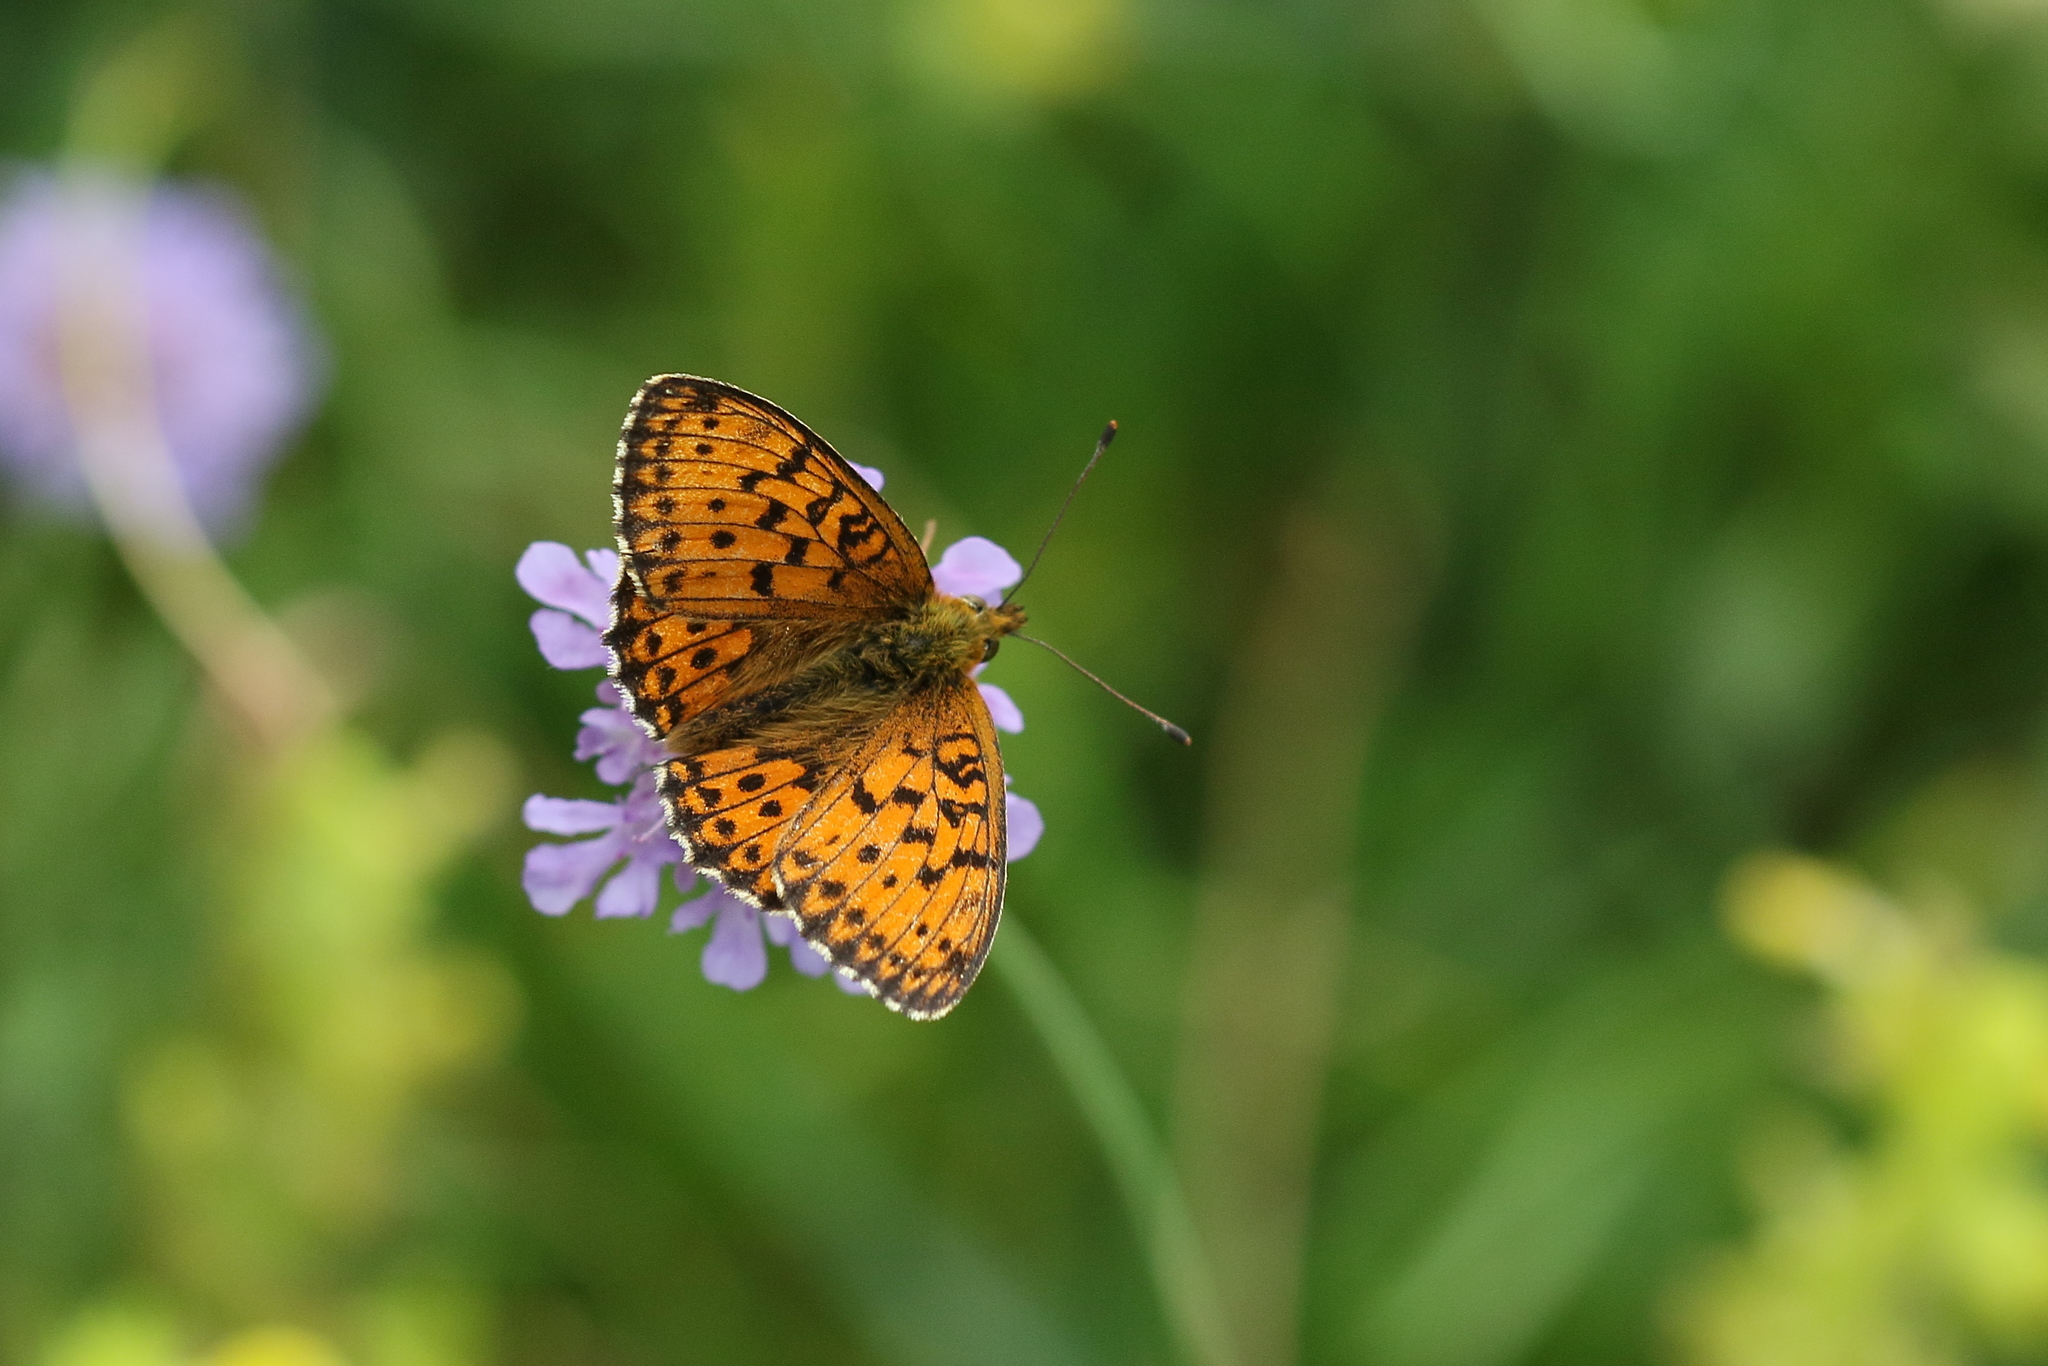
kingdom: Animalia
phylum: Arthropoda
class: Insecta
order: Lepidoptera
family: Nymphalidae
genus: Brenthis
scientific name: Brenthis ino
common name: Lesser marbled fritillary
